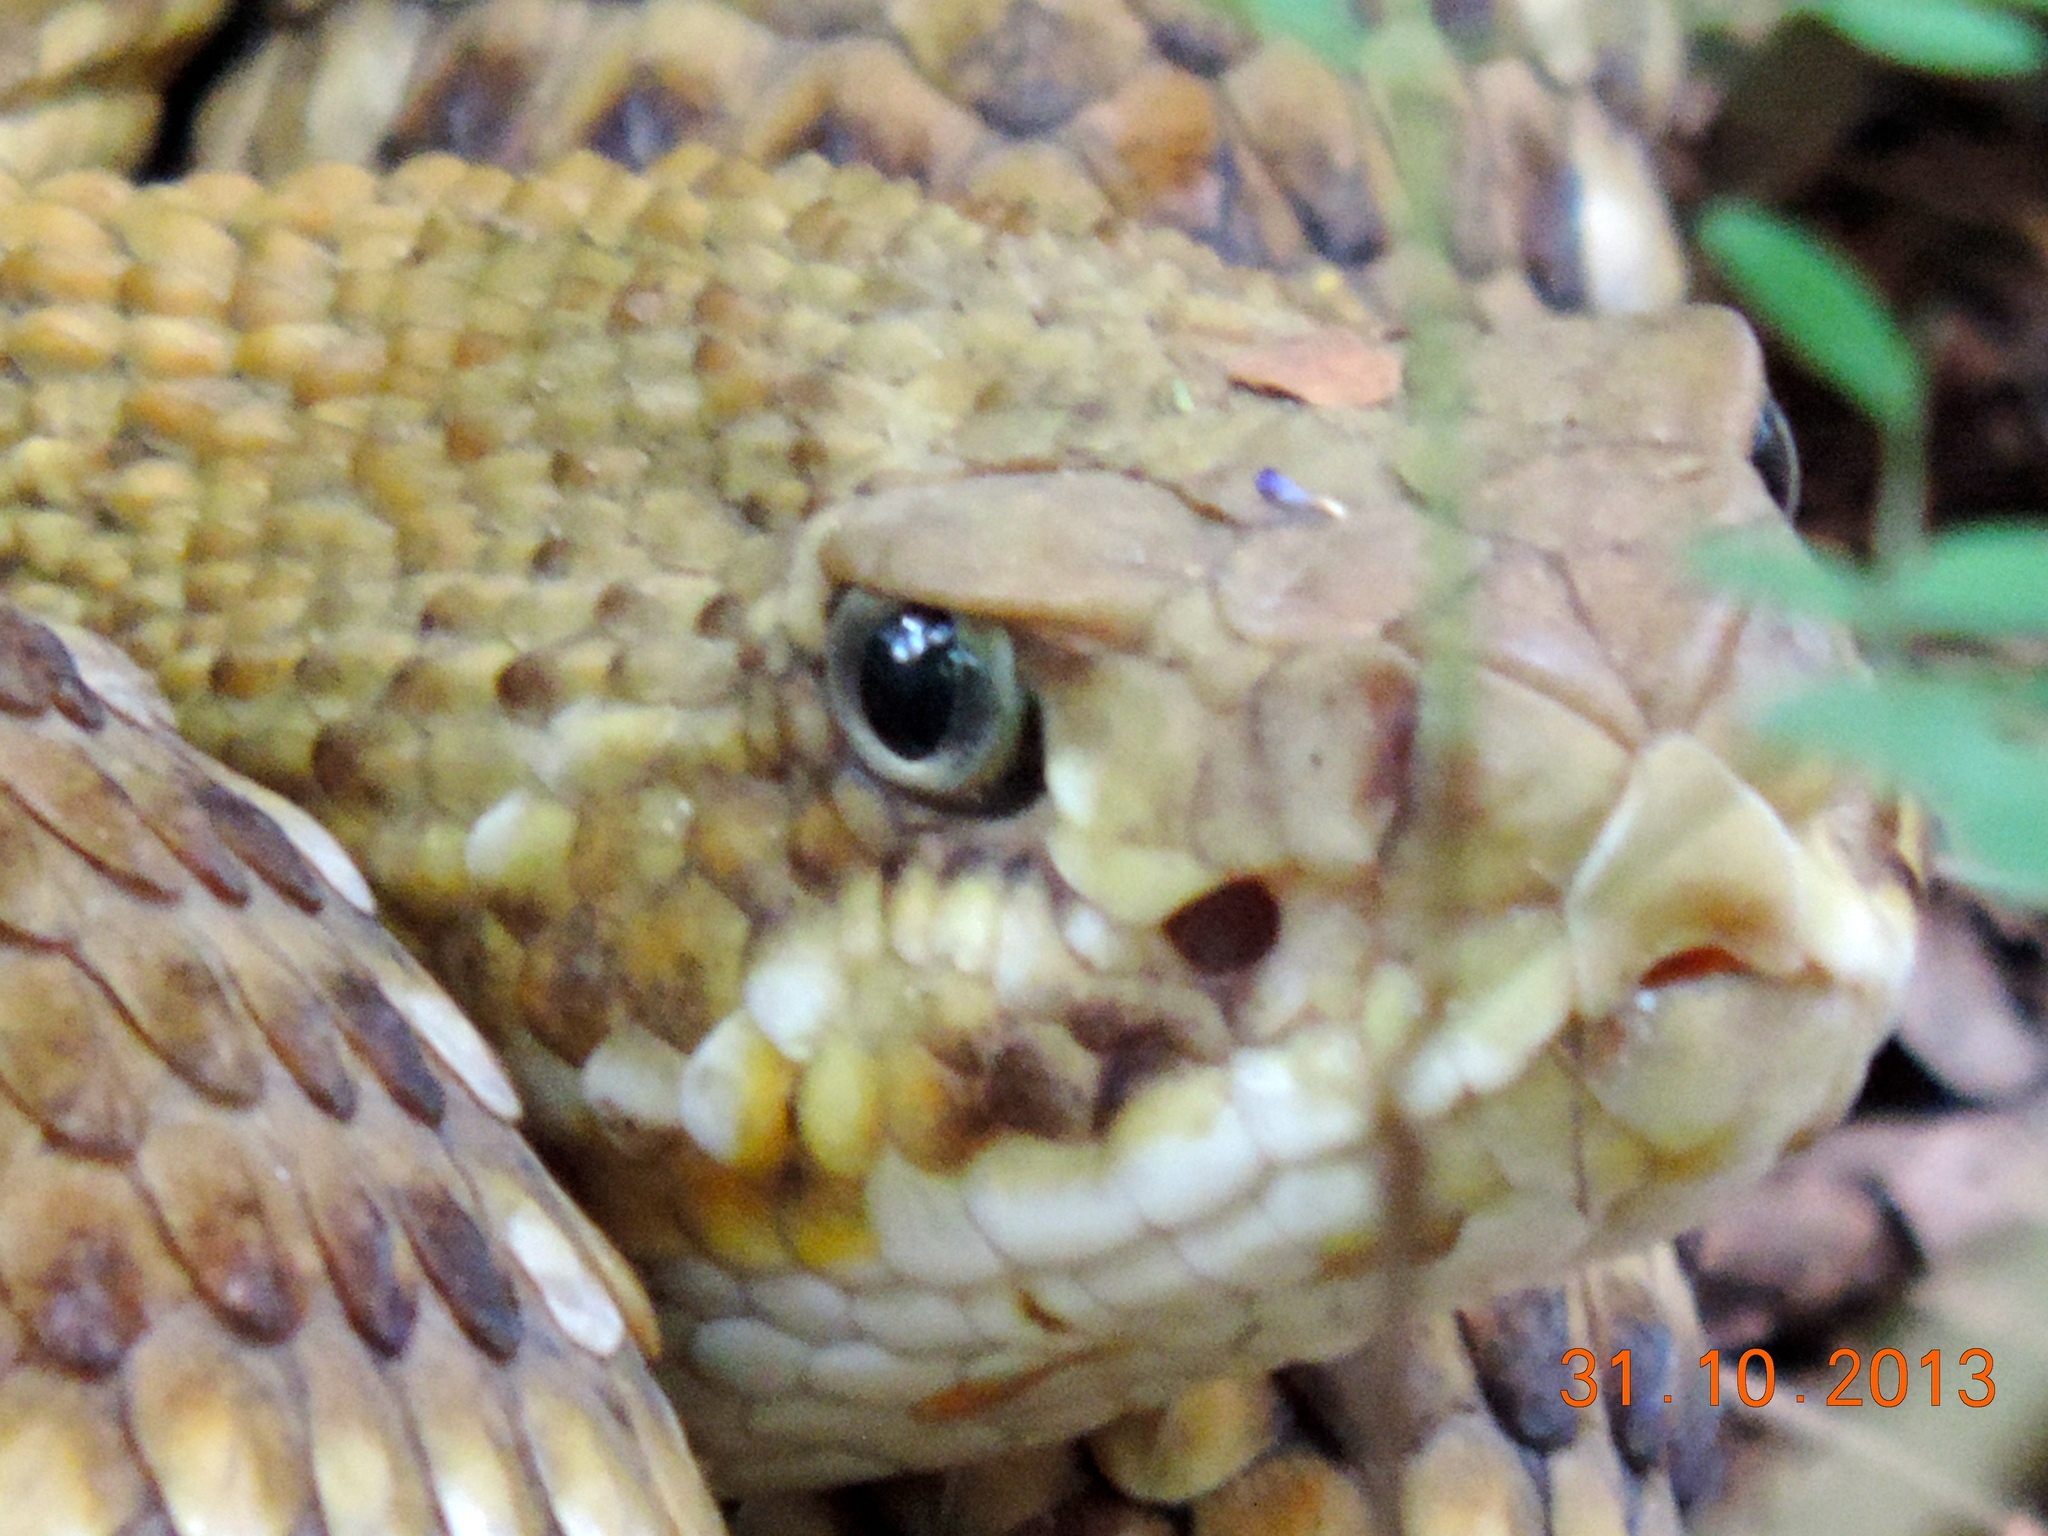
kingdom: Animalia
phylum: Chordata
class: Squamata
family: Viperidae
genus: Crotalus
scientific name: Crotalus basiliscus
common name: Basilisk rattlesnake
